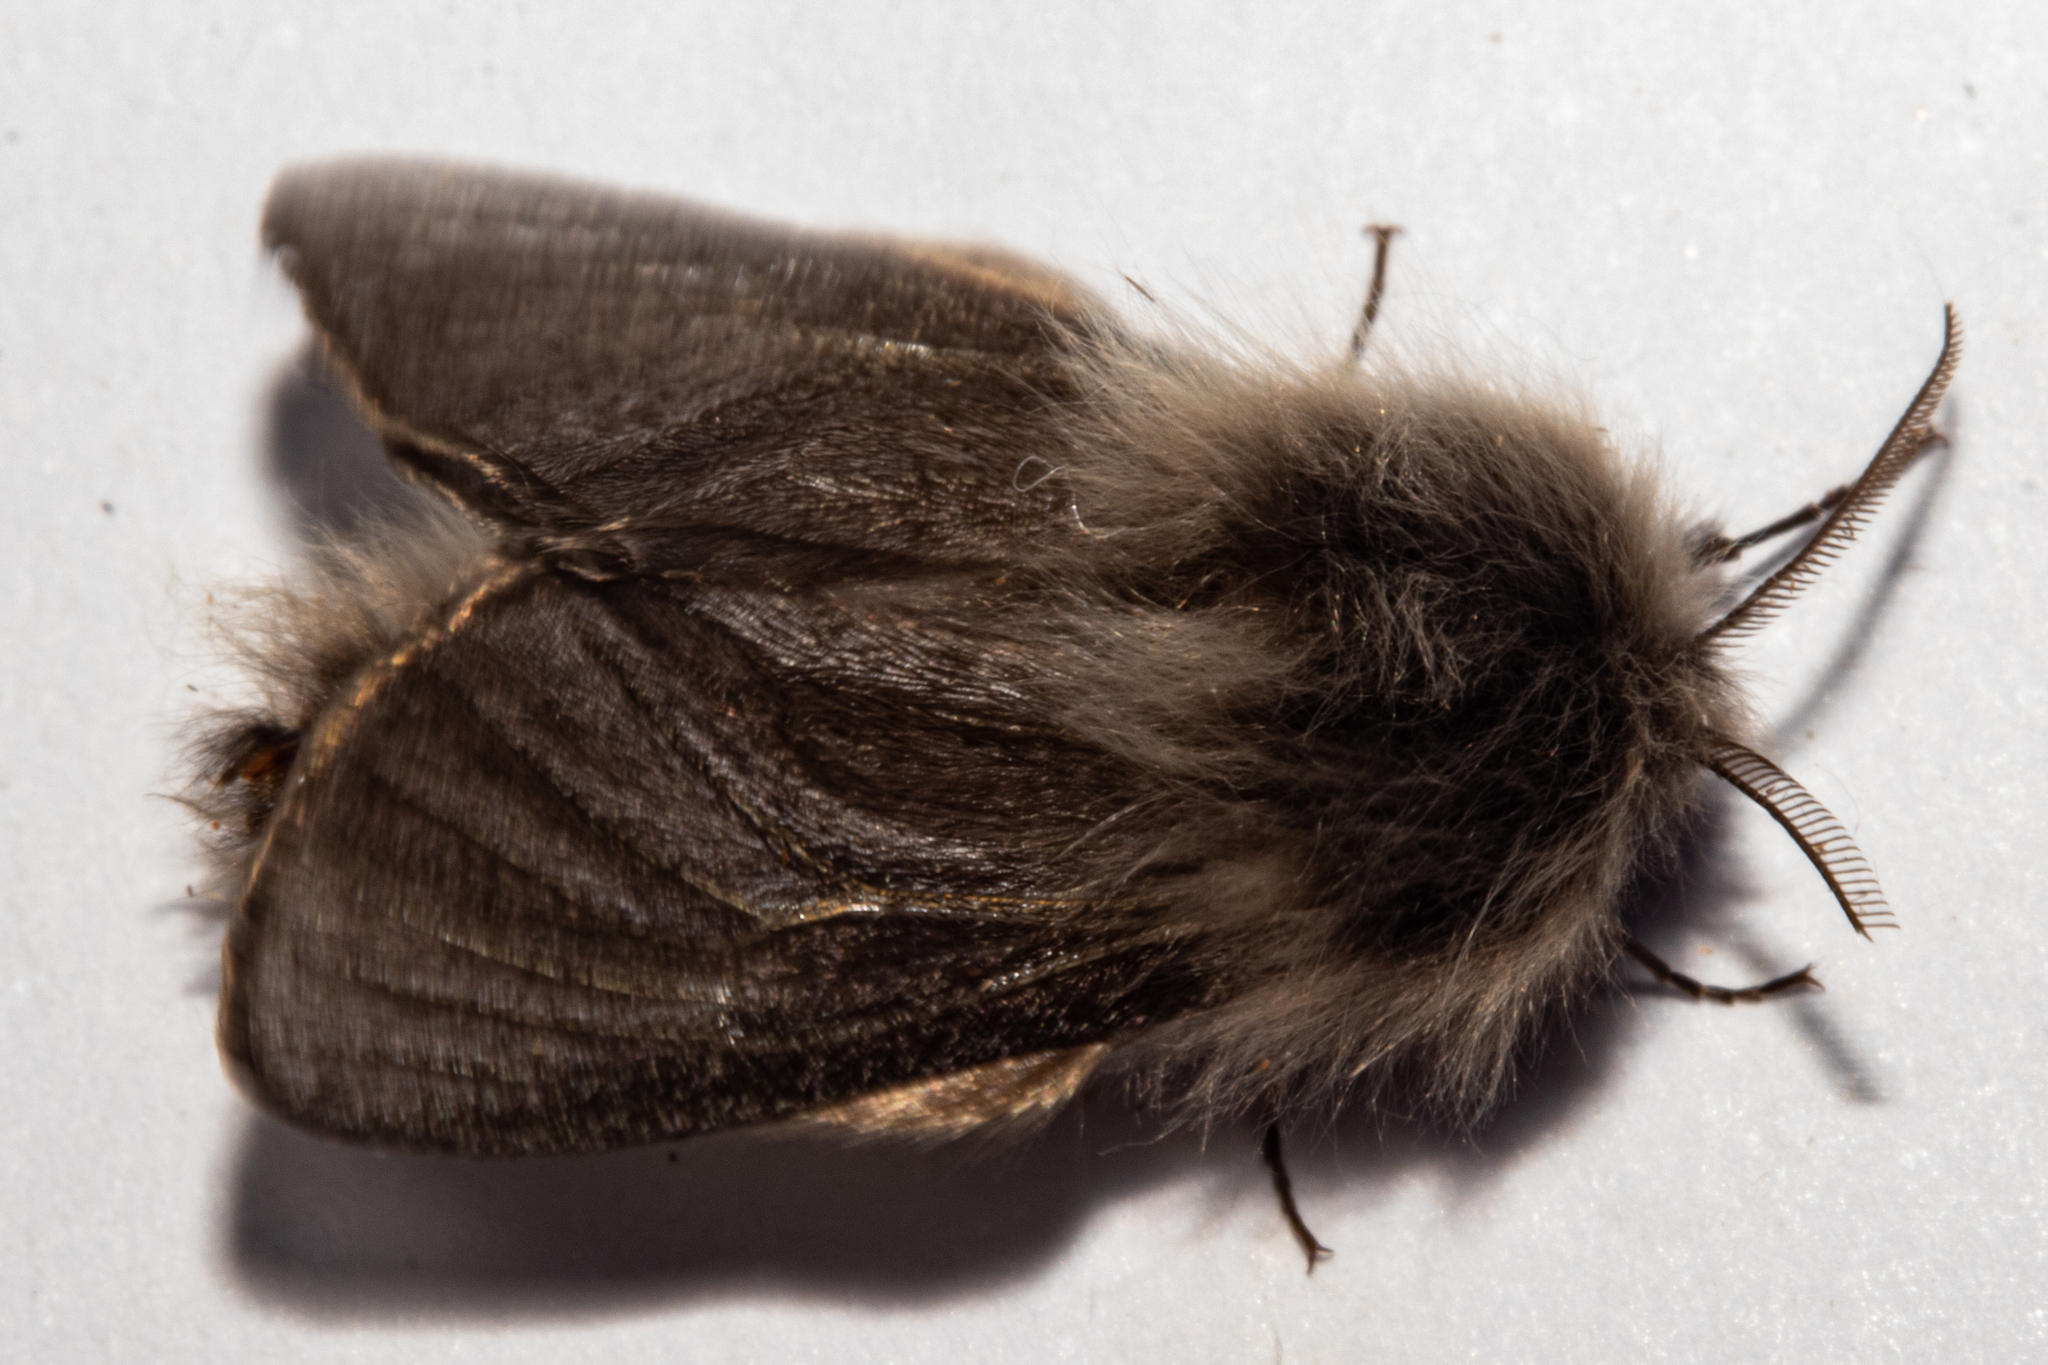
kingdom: Animalia
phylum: Arthropoda
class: Insecta
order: Lepidoptera
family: Psychidae
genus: Orophora
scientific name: Orophora unicolor
